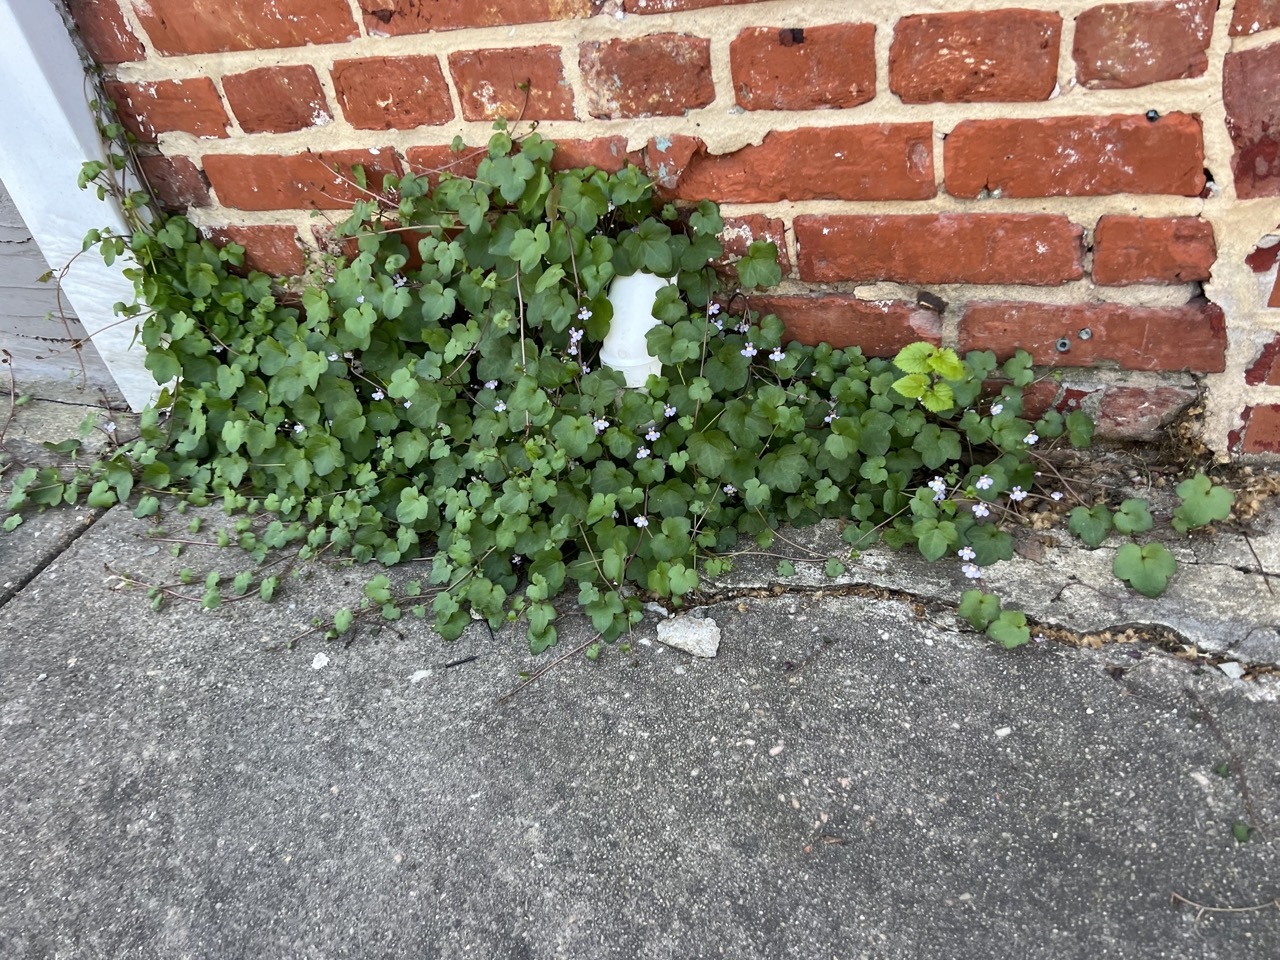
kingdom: Plantae
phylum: Tracheophyta
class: Magnoliopsida
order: Lamiales
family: Plantaginaceae
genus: Cymbalaria
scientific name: Cymbalaria muralis
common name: Ivy-leaved toadflax
